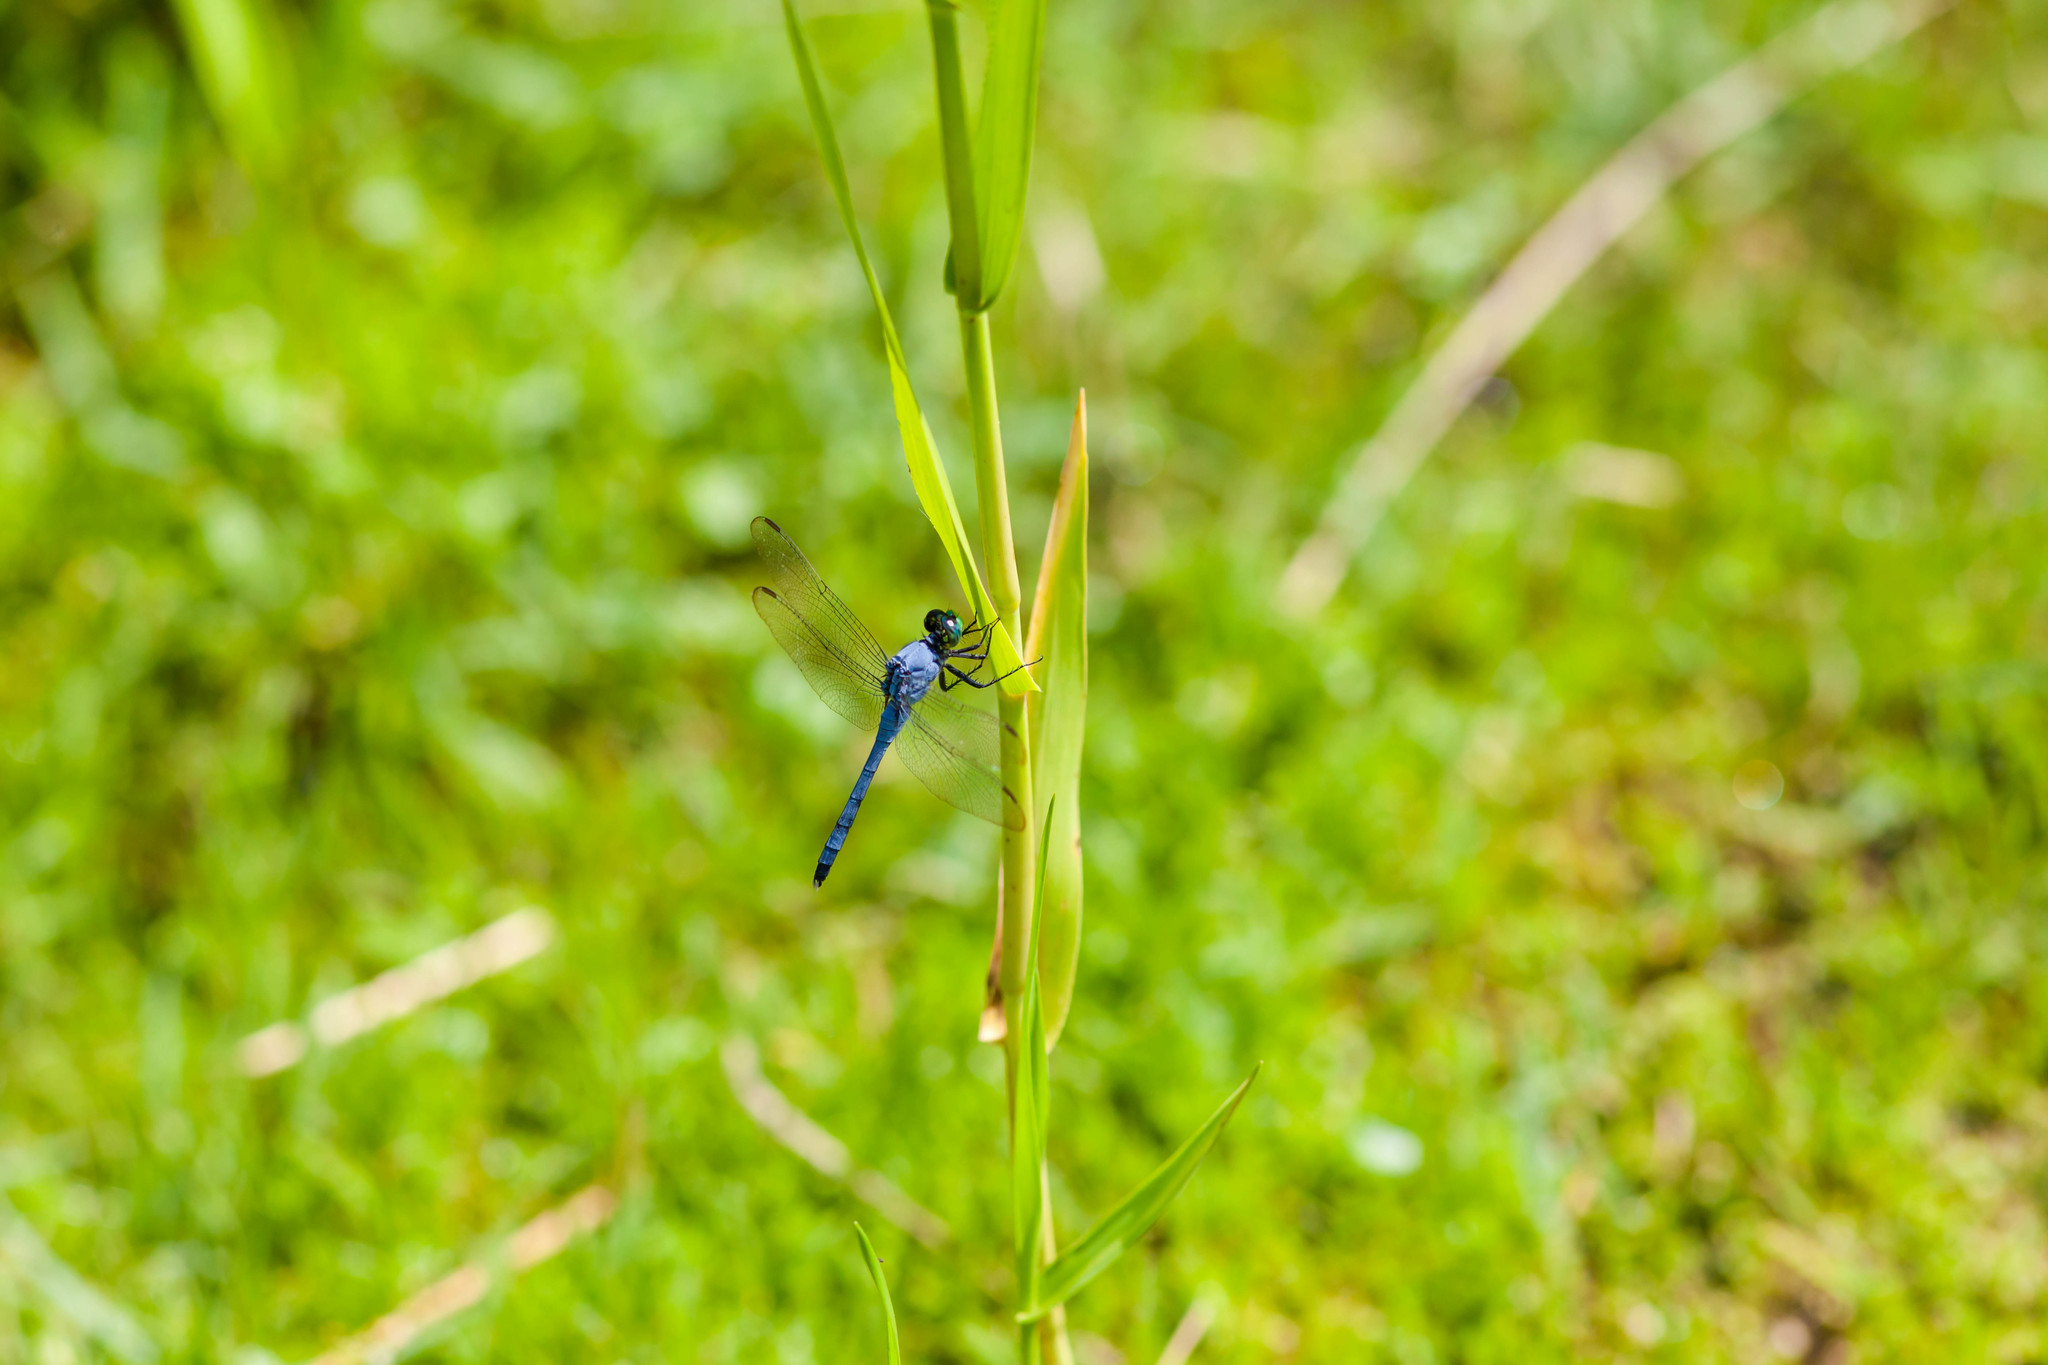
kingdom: Animalia
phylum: Arthropoda
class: Insecta
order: Odonata
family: Libellulidae
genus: Erythemis
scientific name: Erythemis simplicicollis
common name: Eastern pondhawk
